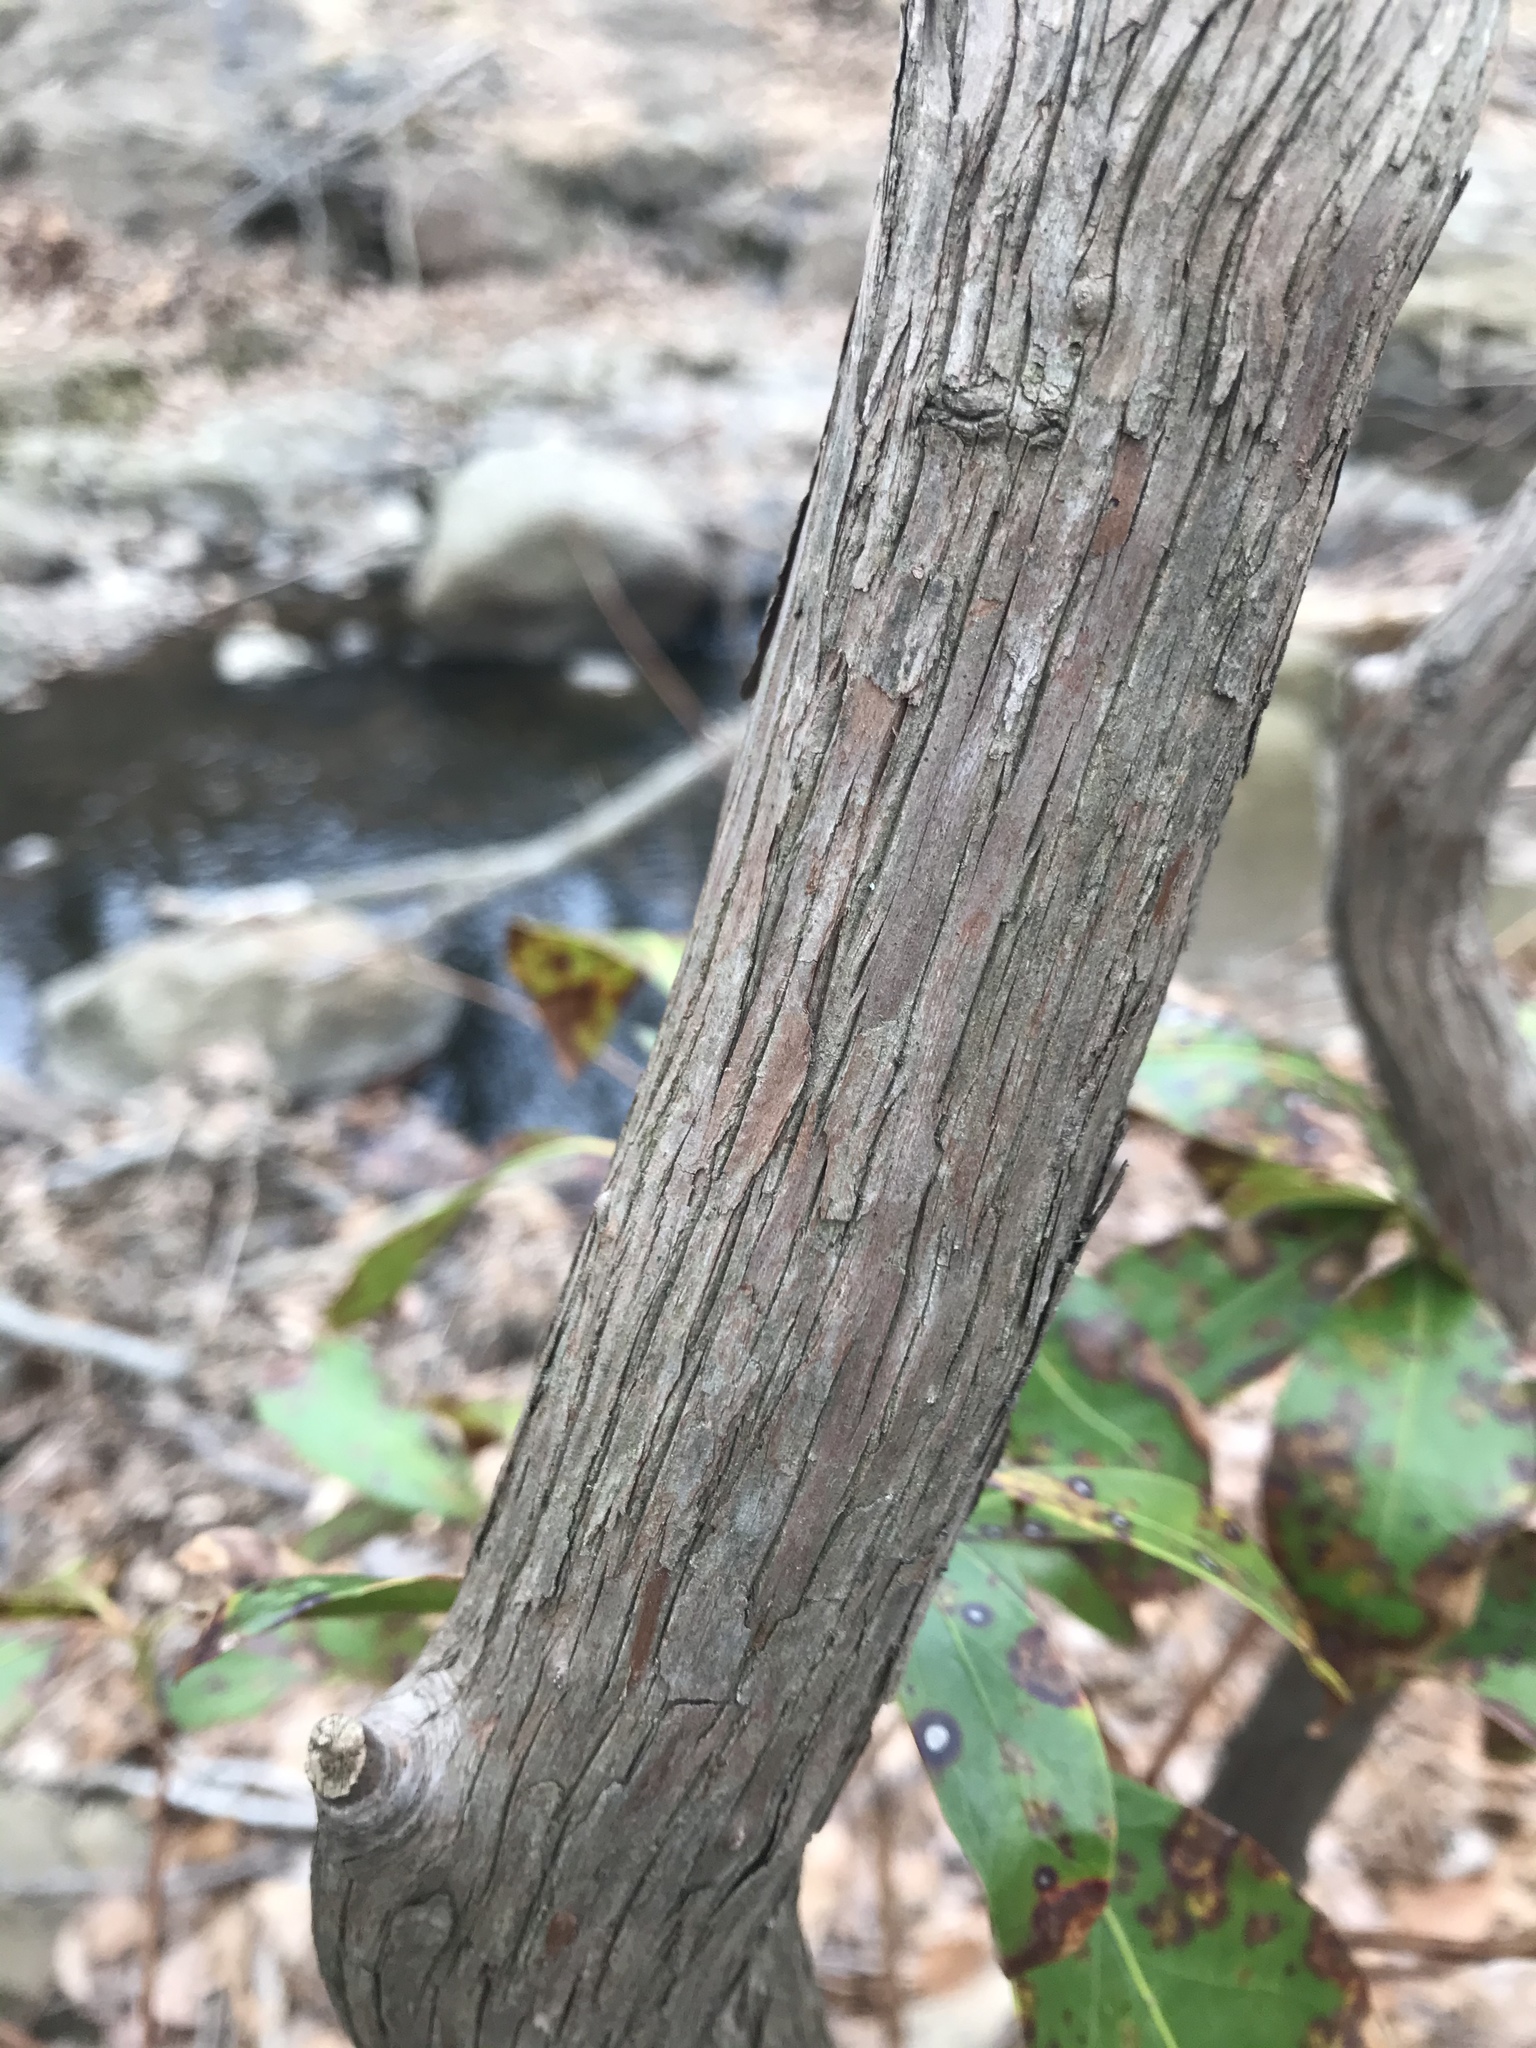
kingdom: Plantae
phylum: Tracheophyta
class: Magnoliopsida
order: Ericales
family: Ericaceae
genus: Kalmia
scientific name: Kalmia latifolia
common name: Mountain-laurel
